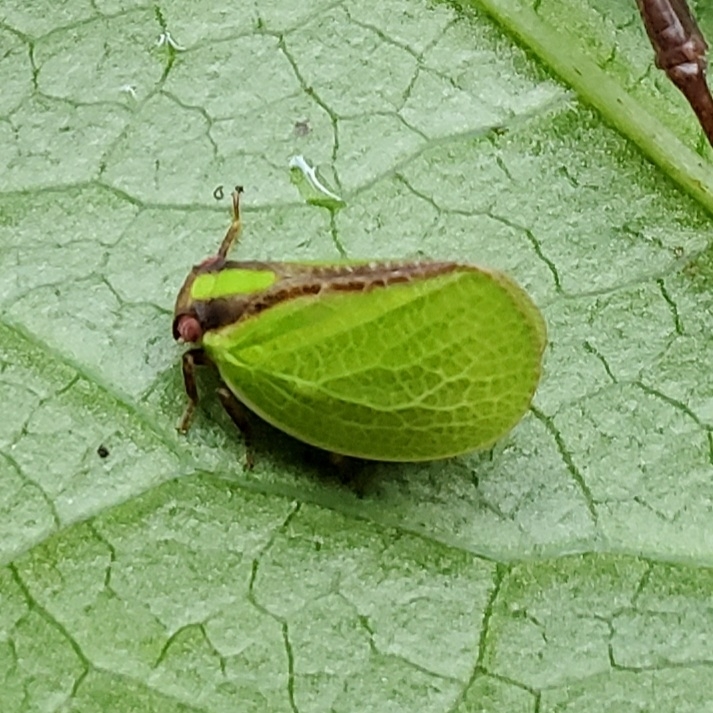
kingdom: Animalia
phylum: Arthropoda
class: Insecta
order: Hemiptera
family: Acanaloniidae
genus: Acanalonia
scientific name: Acanalonia bivittata
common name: Two-striped planthopper
